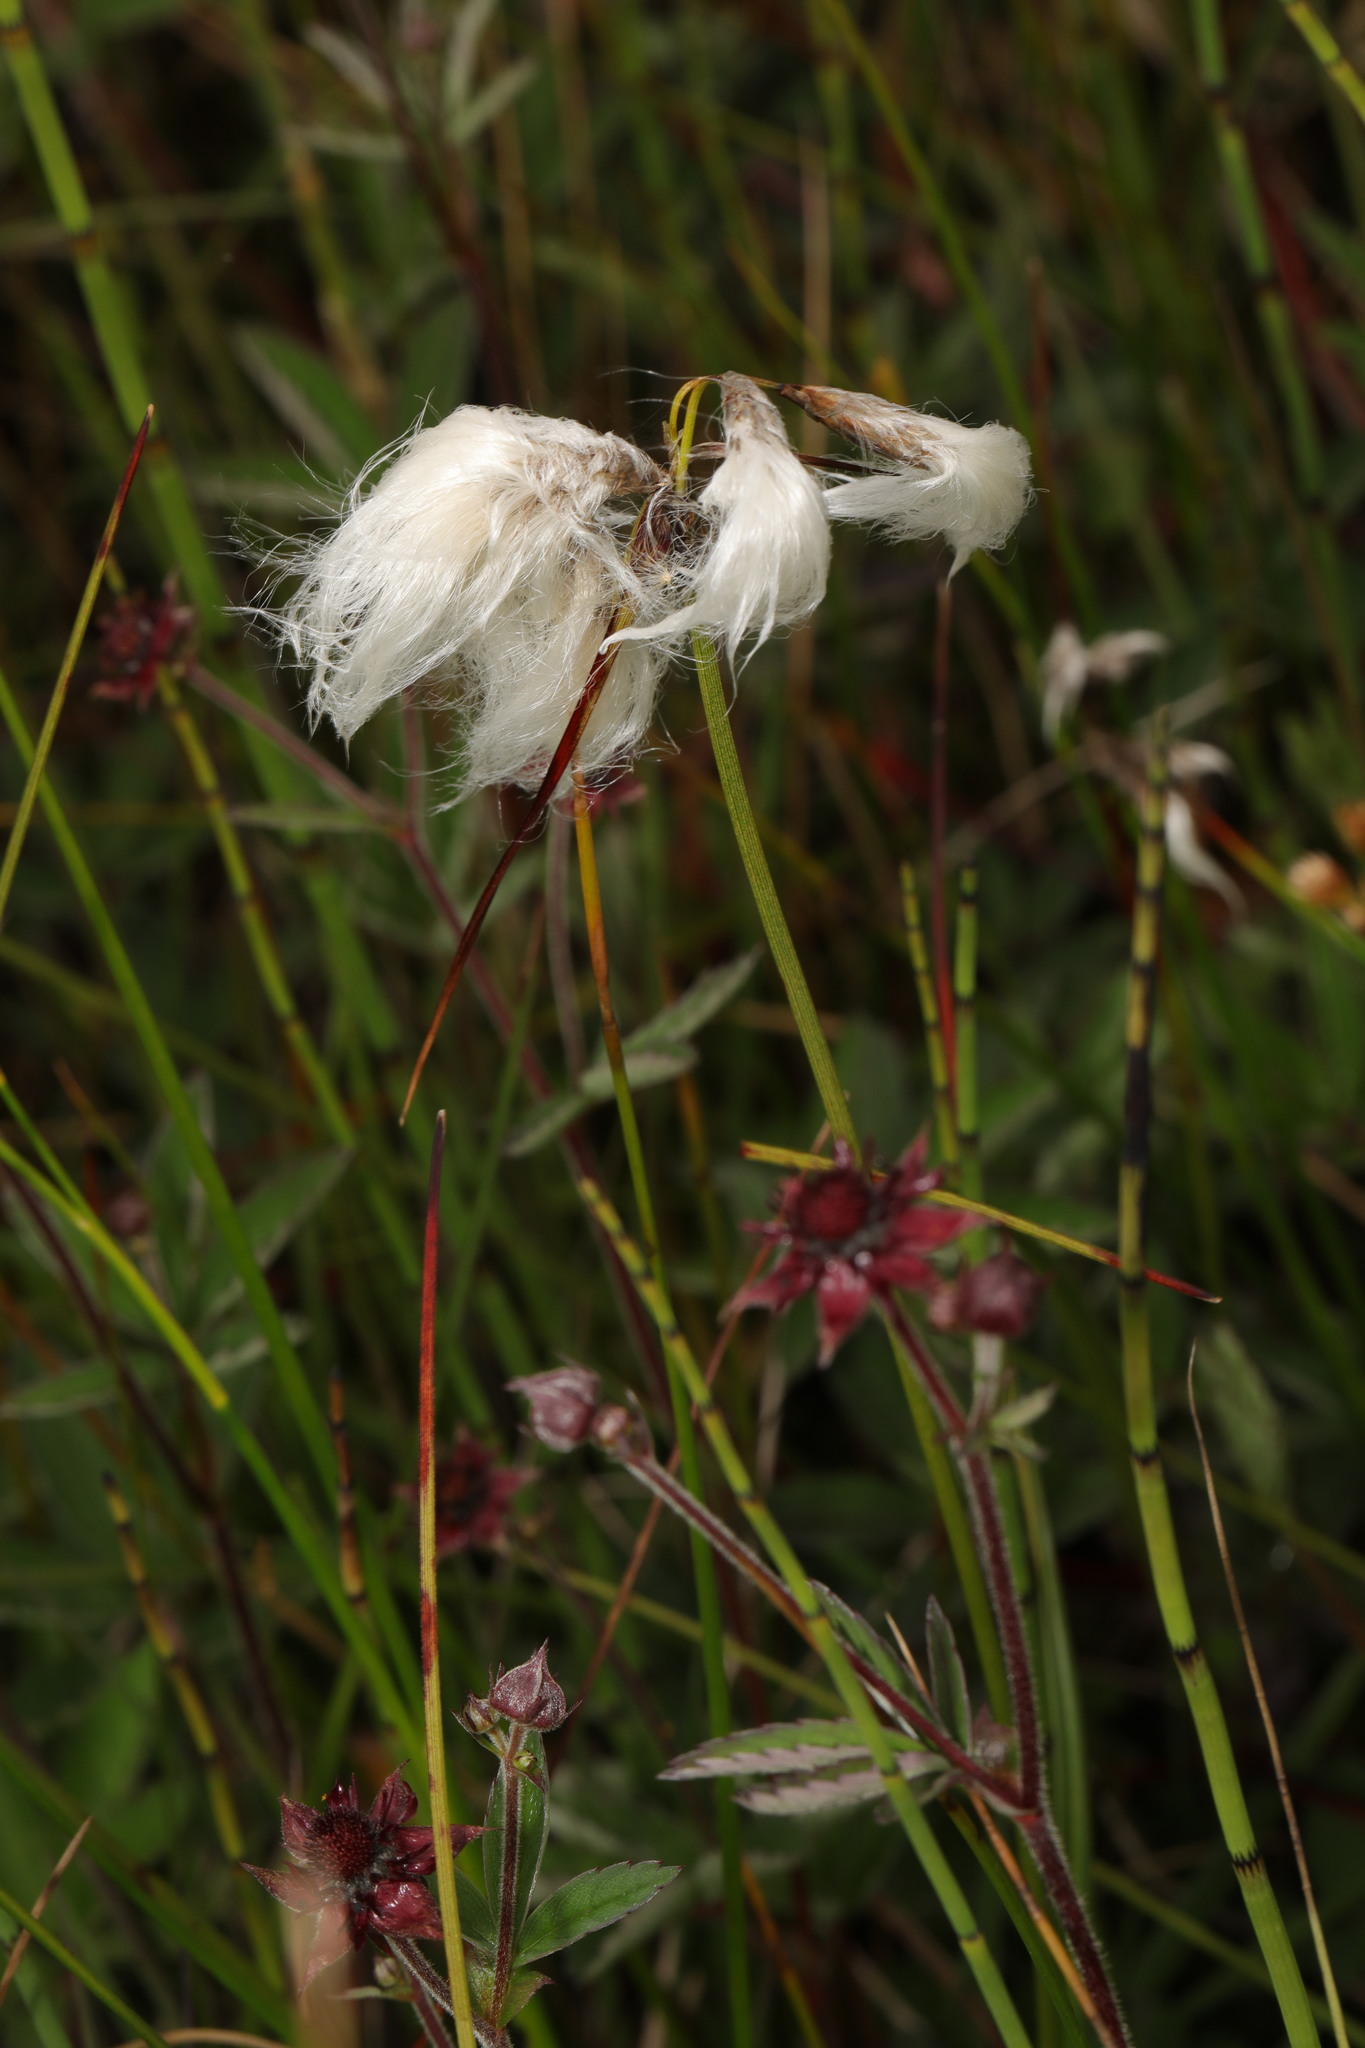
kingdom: Plantae
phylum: Tracheophyta
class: Liliopsida
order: Poales
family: Cyperaceae
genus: Eriophorum
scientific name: Eriophorum angustifolium
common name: Common cottongrass
